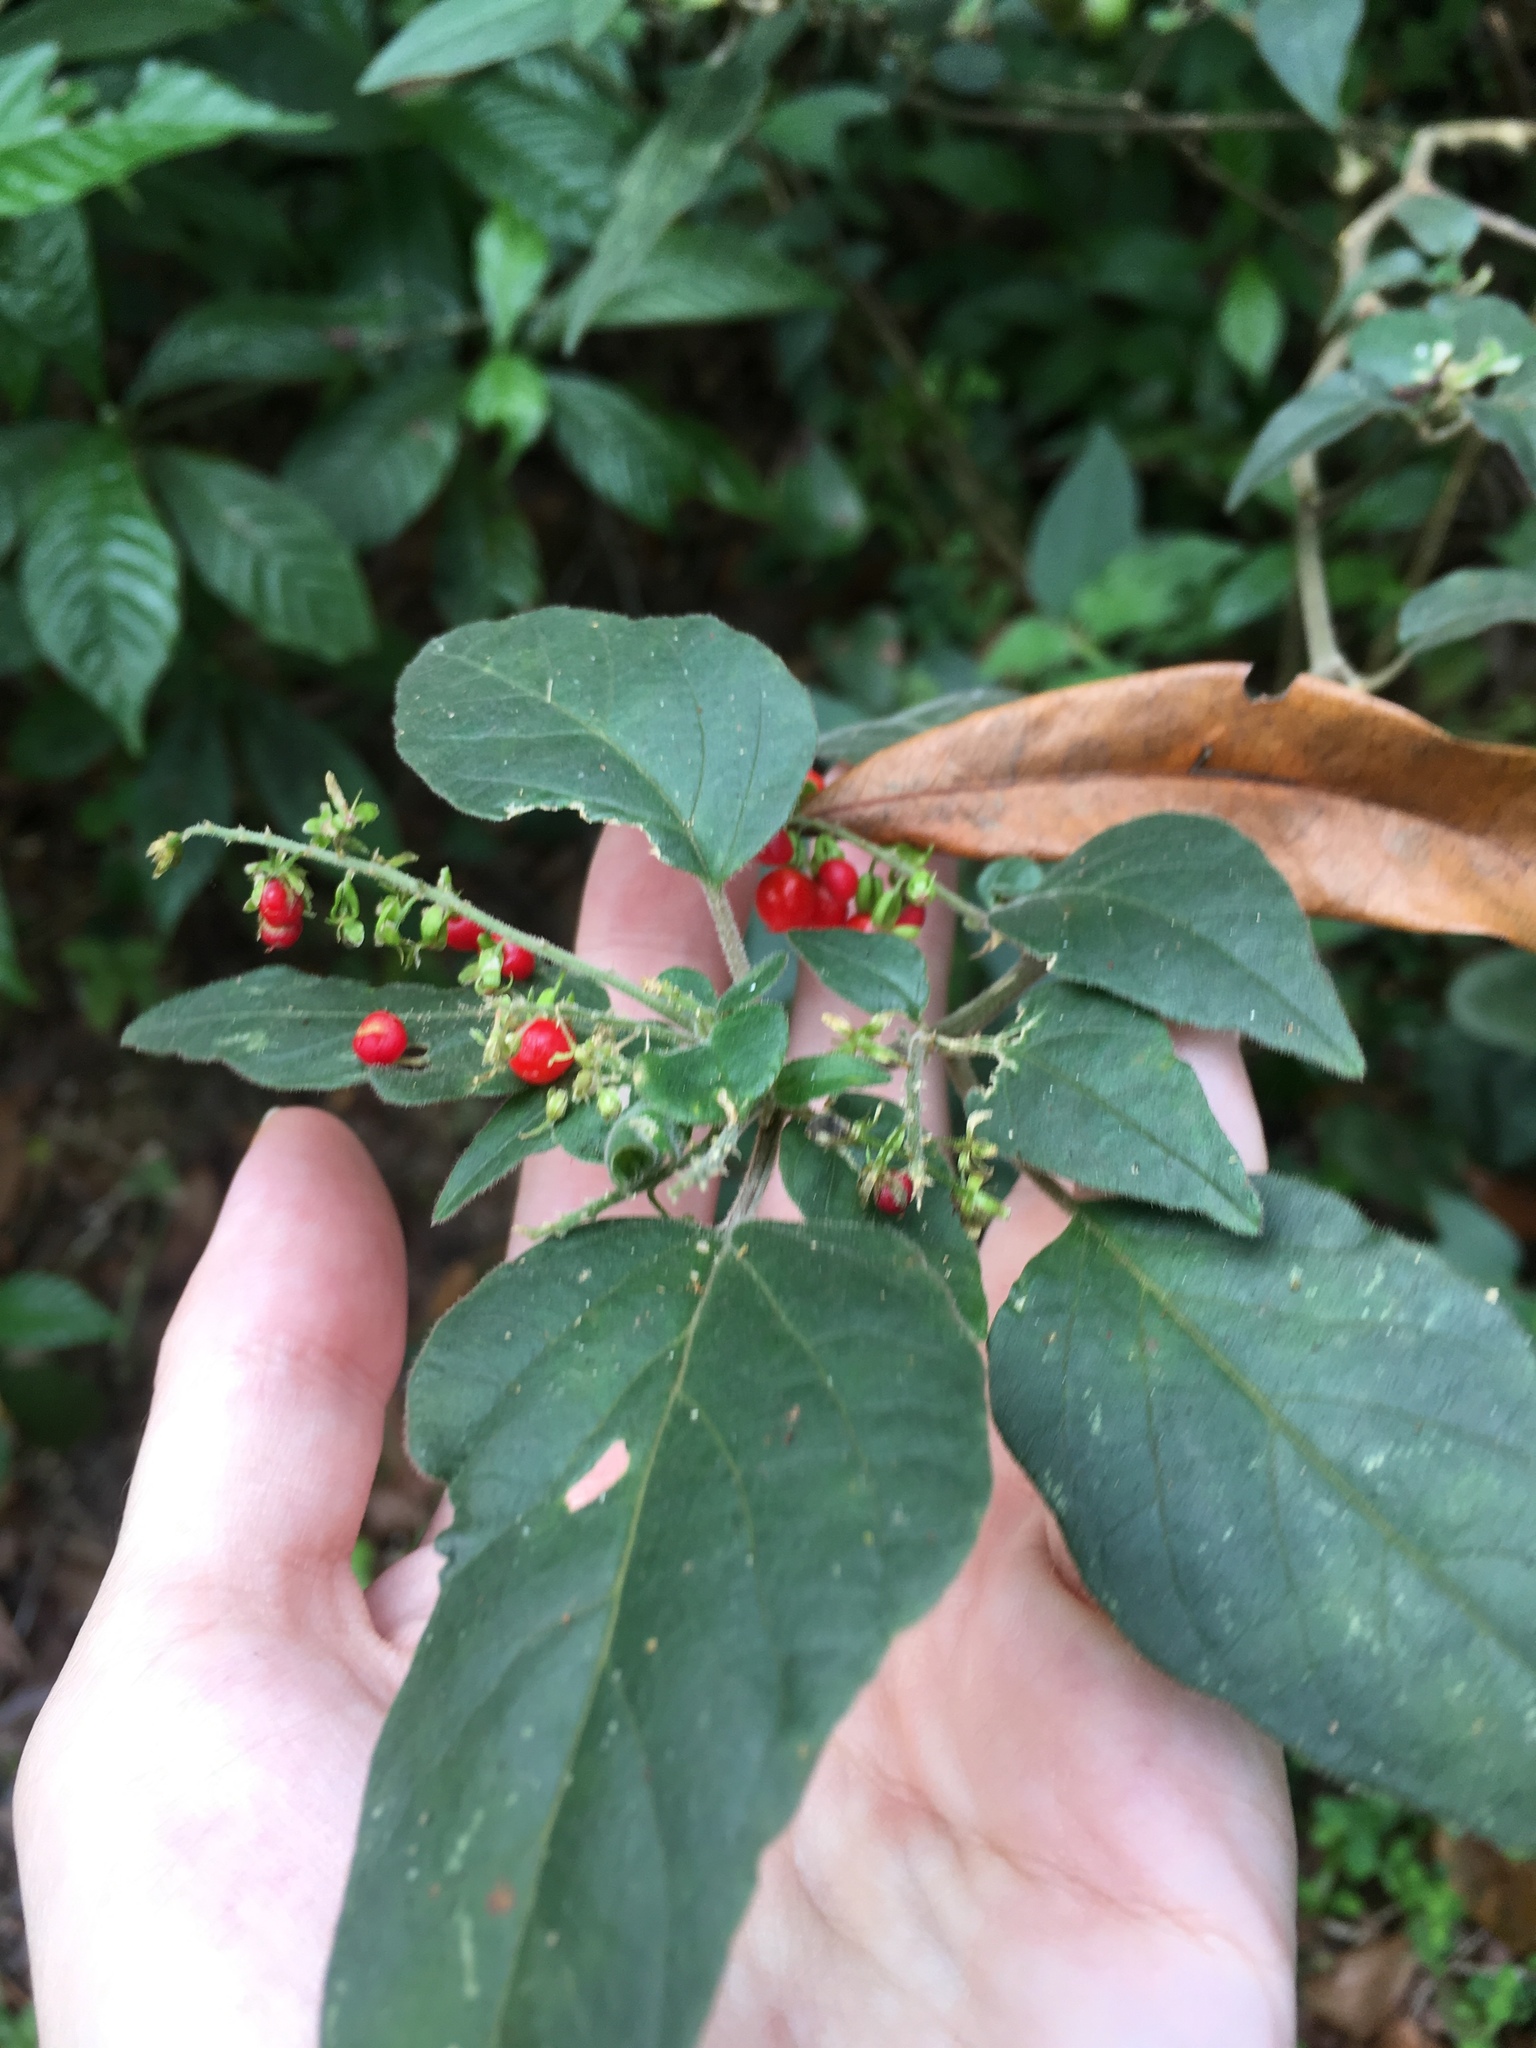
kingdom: Plantae
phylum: Tracheophyta
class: Magnoliopsida
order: Caryophyllales
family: Phytolaccaceae
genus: Rivina
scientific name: Rivina humilis
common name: Rougeplant
